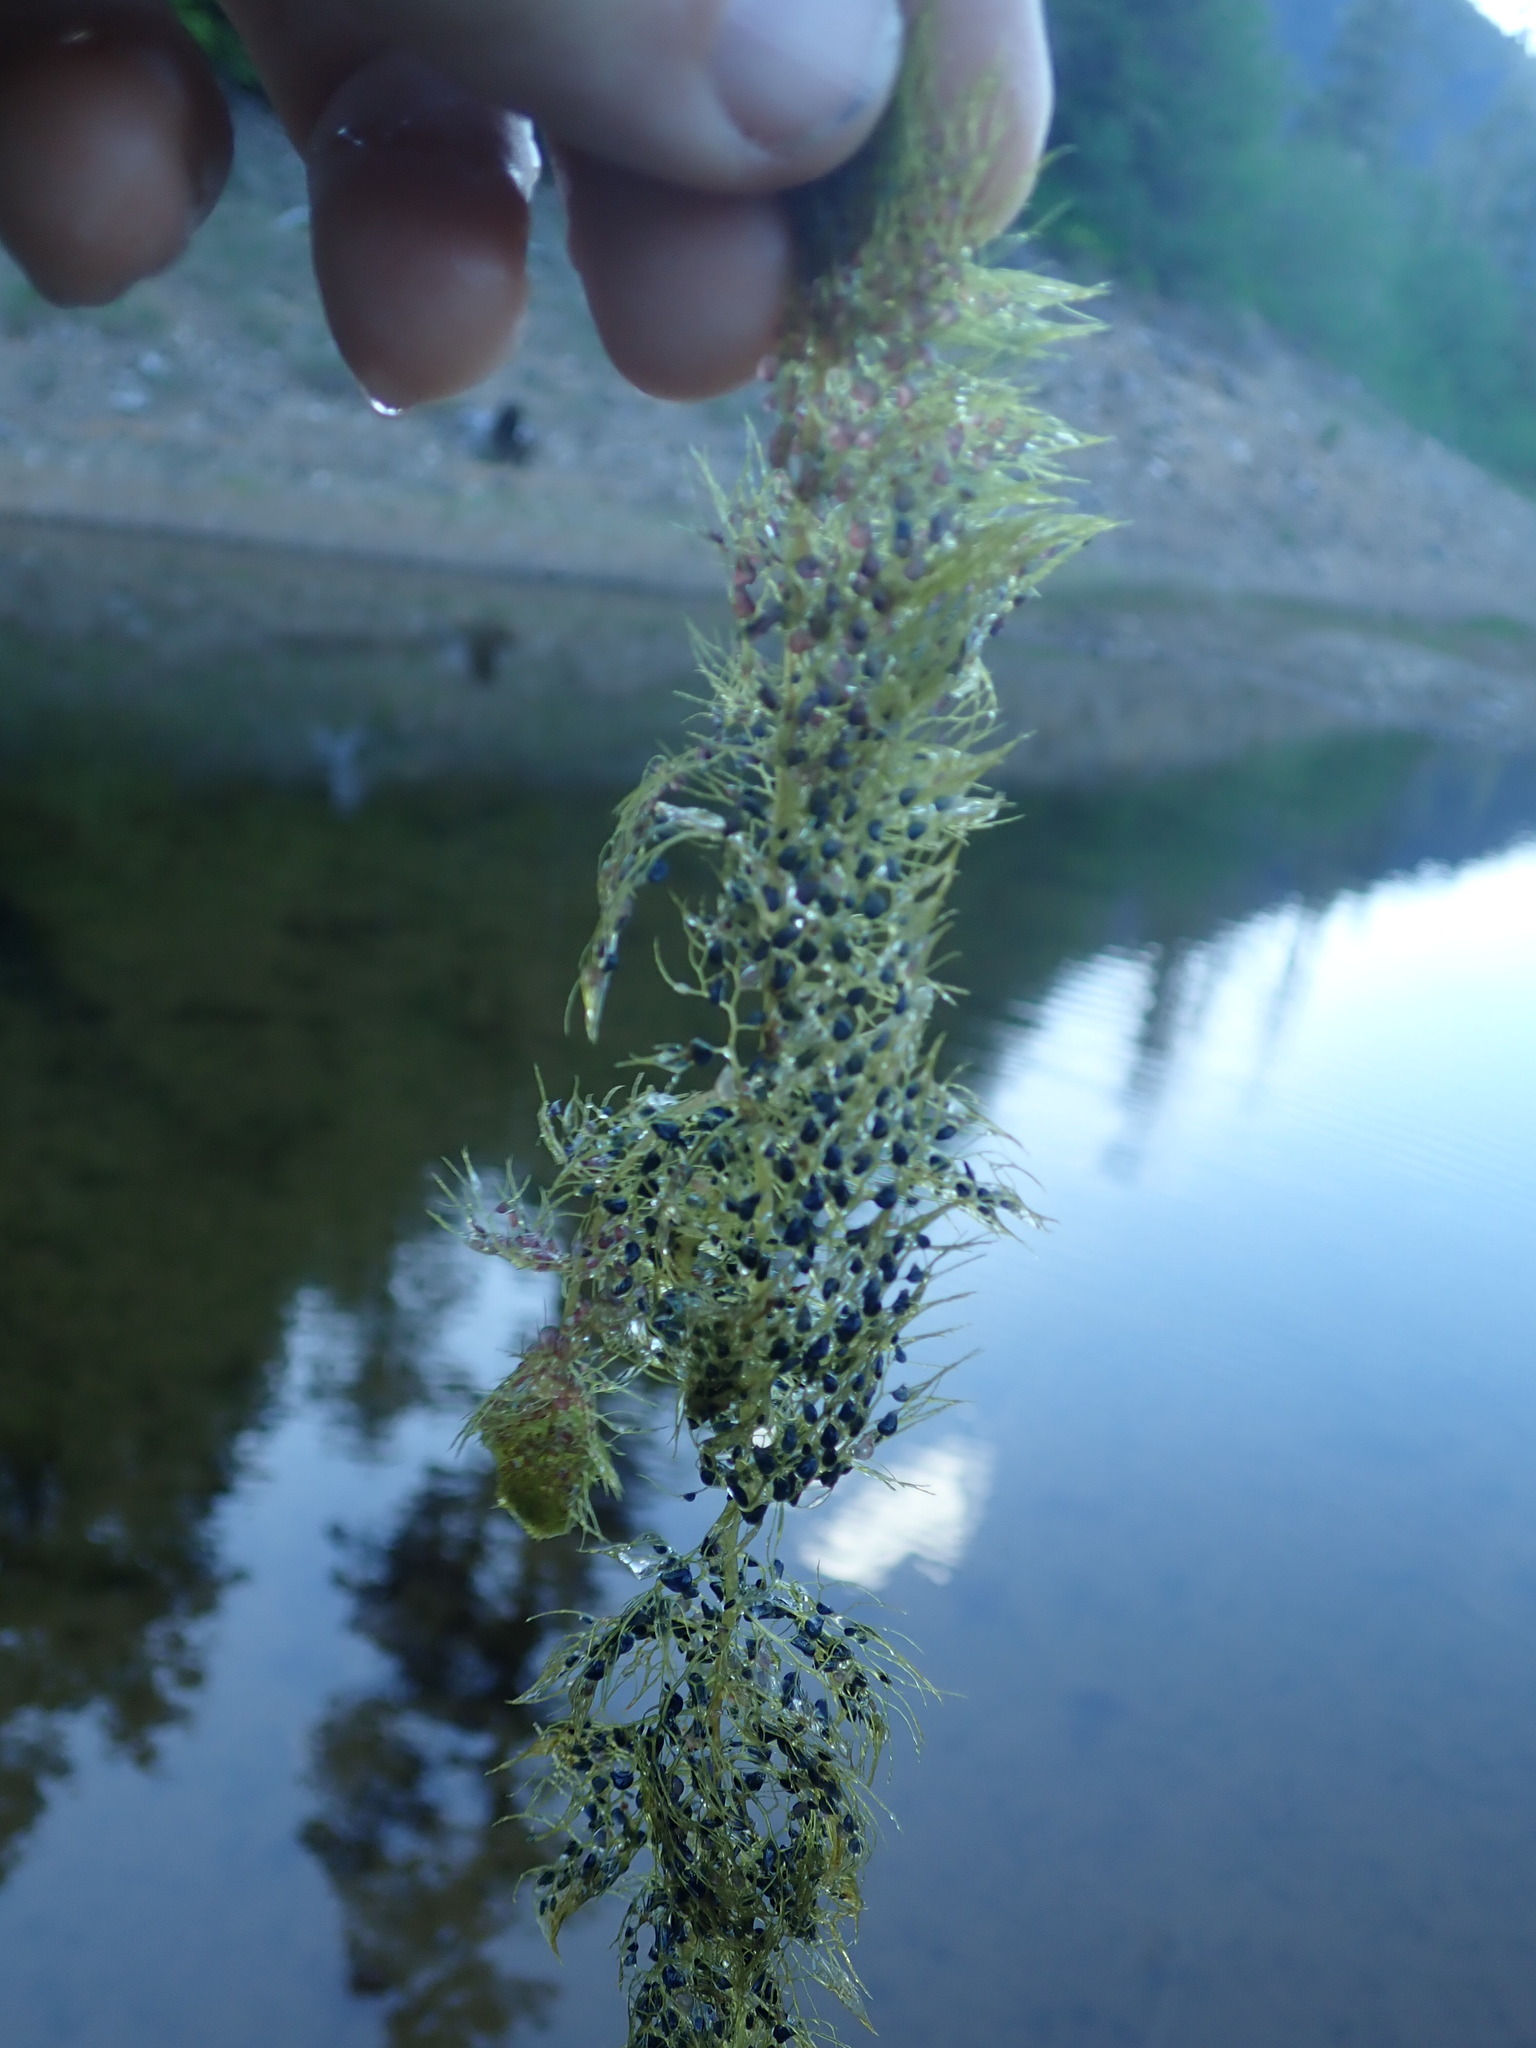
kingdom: Plantae
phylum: Tracheophyta
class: Magnoliopsida
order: Lamiales
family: Lentibulariaceae
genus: Utricularia
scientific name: Utricularia macrorhiza
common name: Common bladderwort
